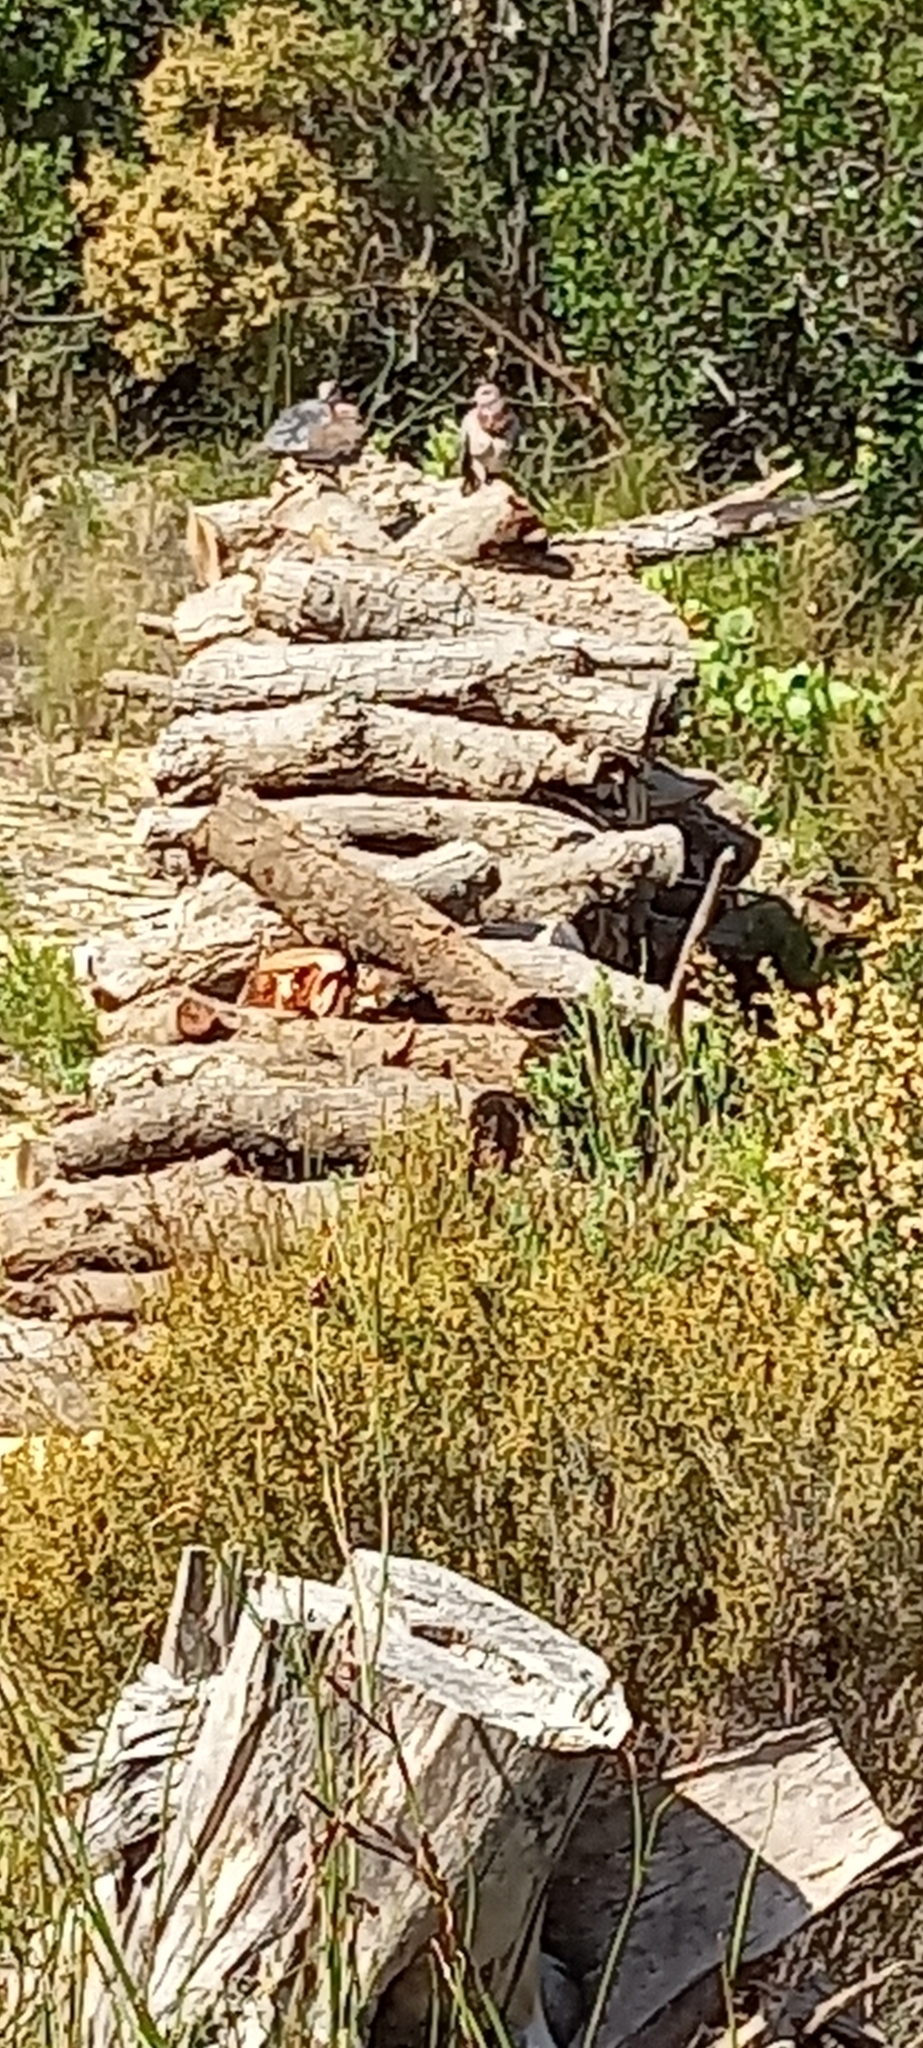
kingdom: Animalia
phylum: Chordata
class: Aves
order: Columbiformes
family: Columbidae
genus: Spilopelia
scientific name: Spilopelia senegalensis
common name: Laughing dove
